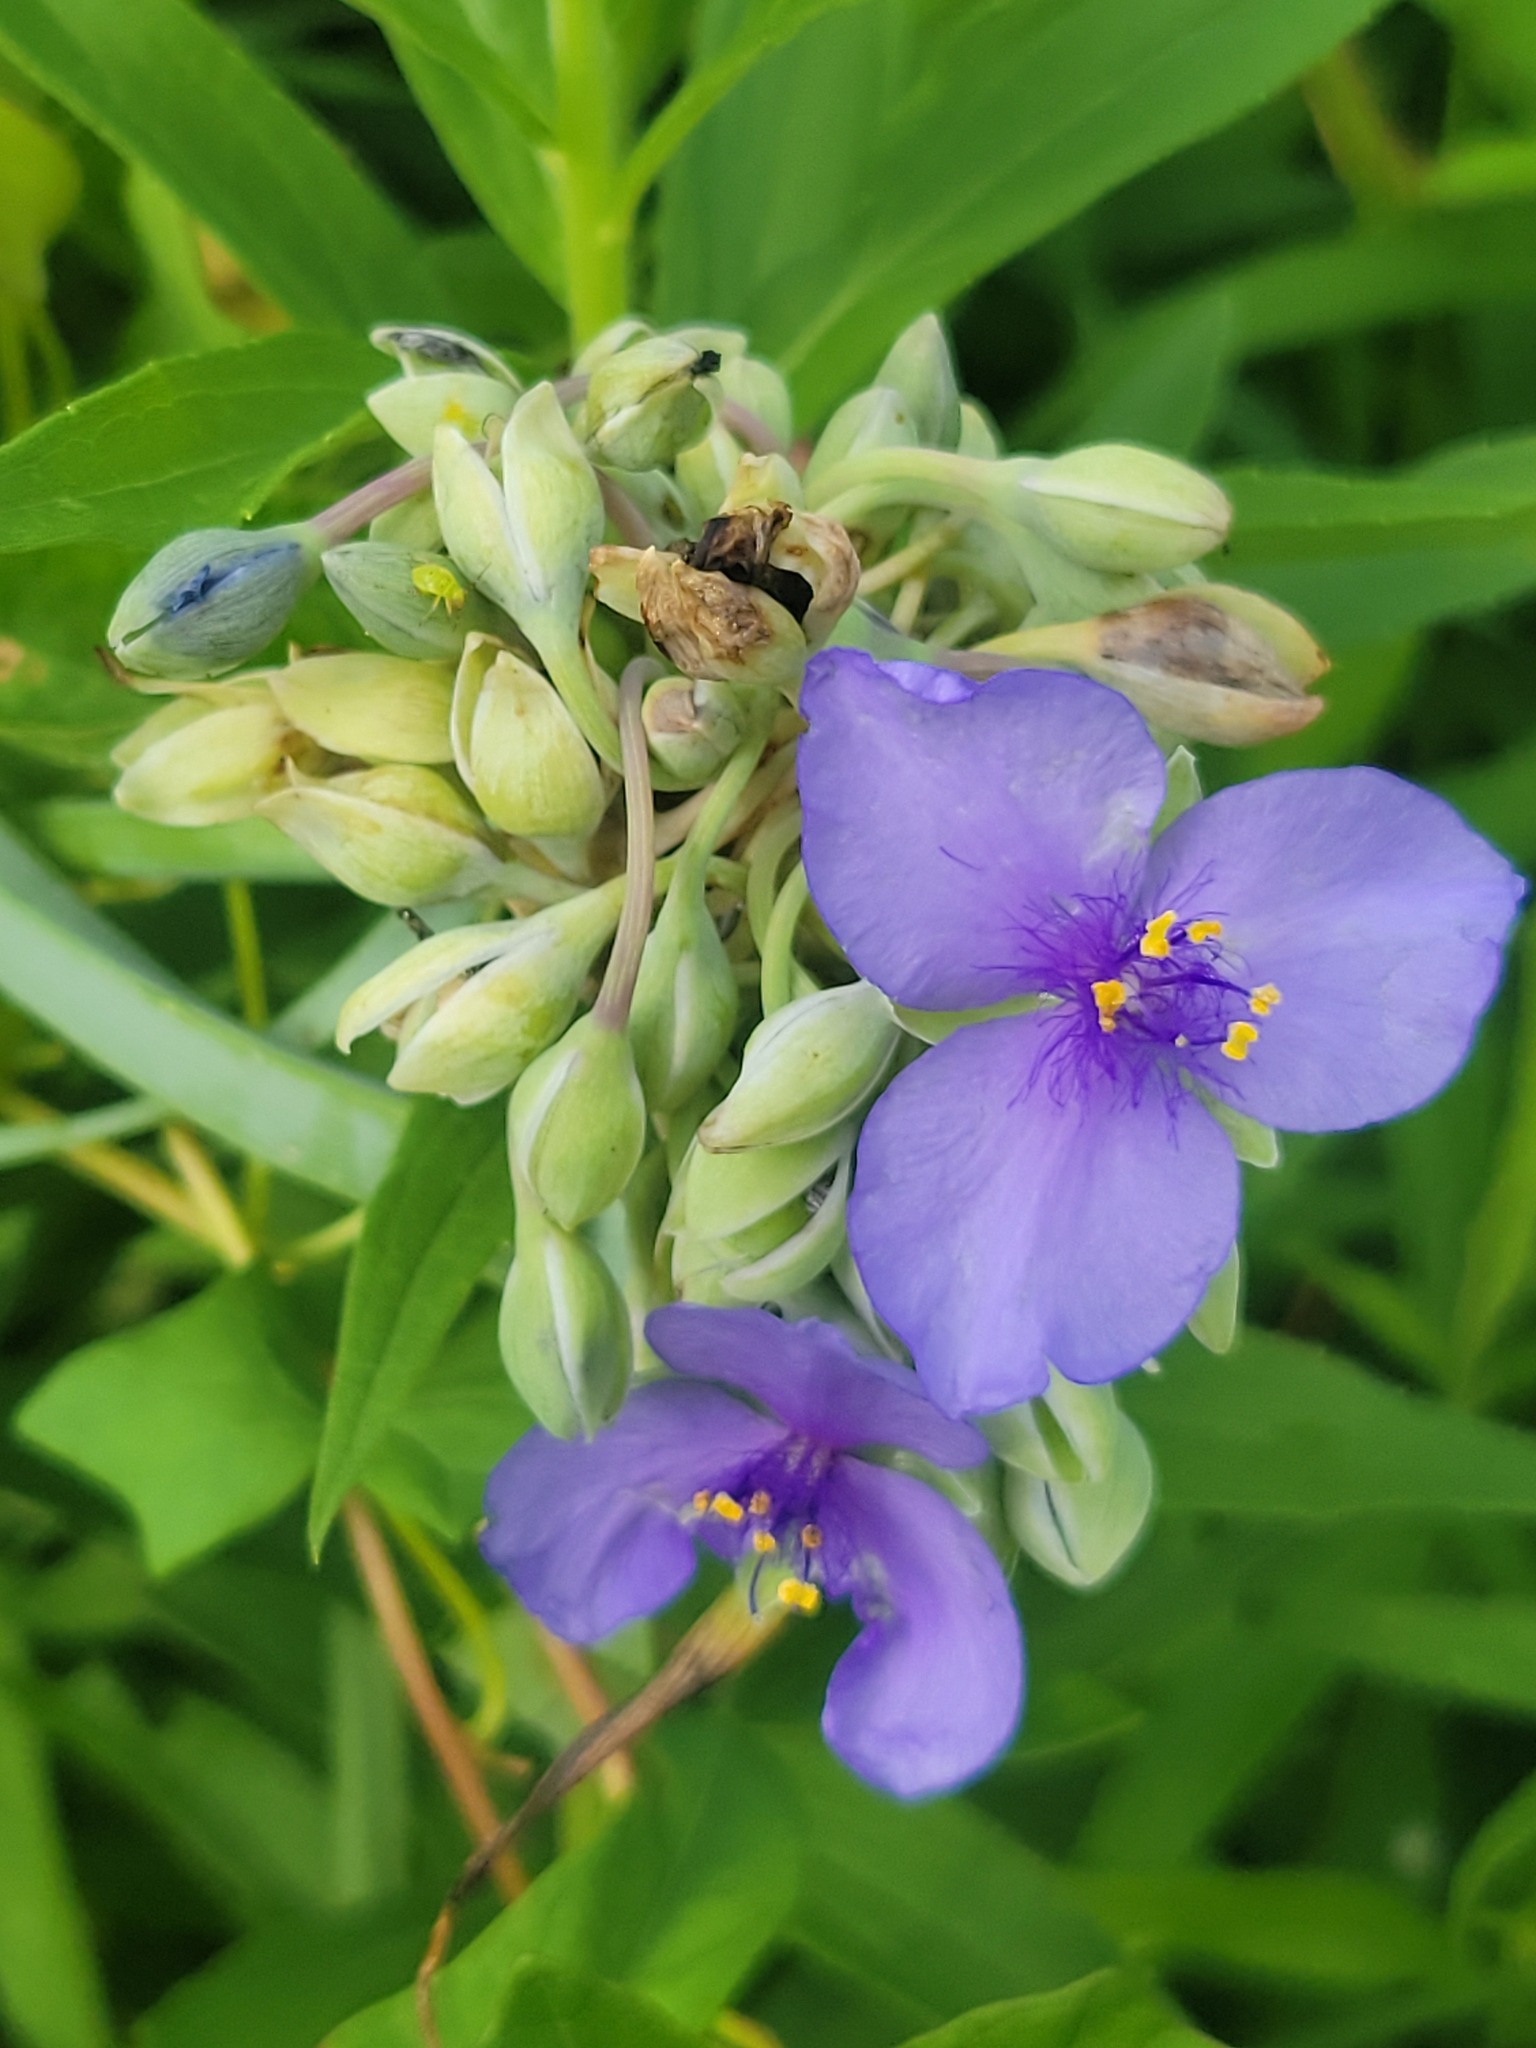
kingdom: Plantae
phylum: Tracheophyta
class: Liliopsida
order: Commelinales
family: Commelinaceae
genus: Tradescantia
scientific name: Tradescantia ohiensis
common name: Ohio spiderwort
